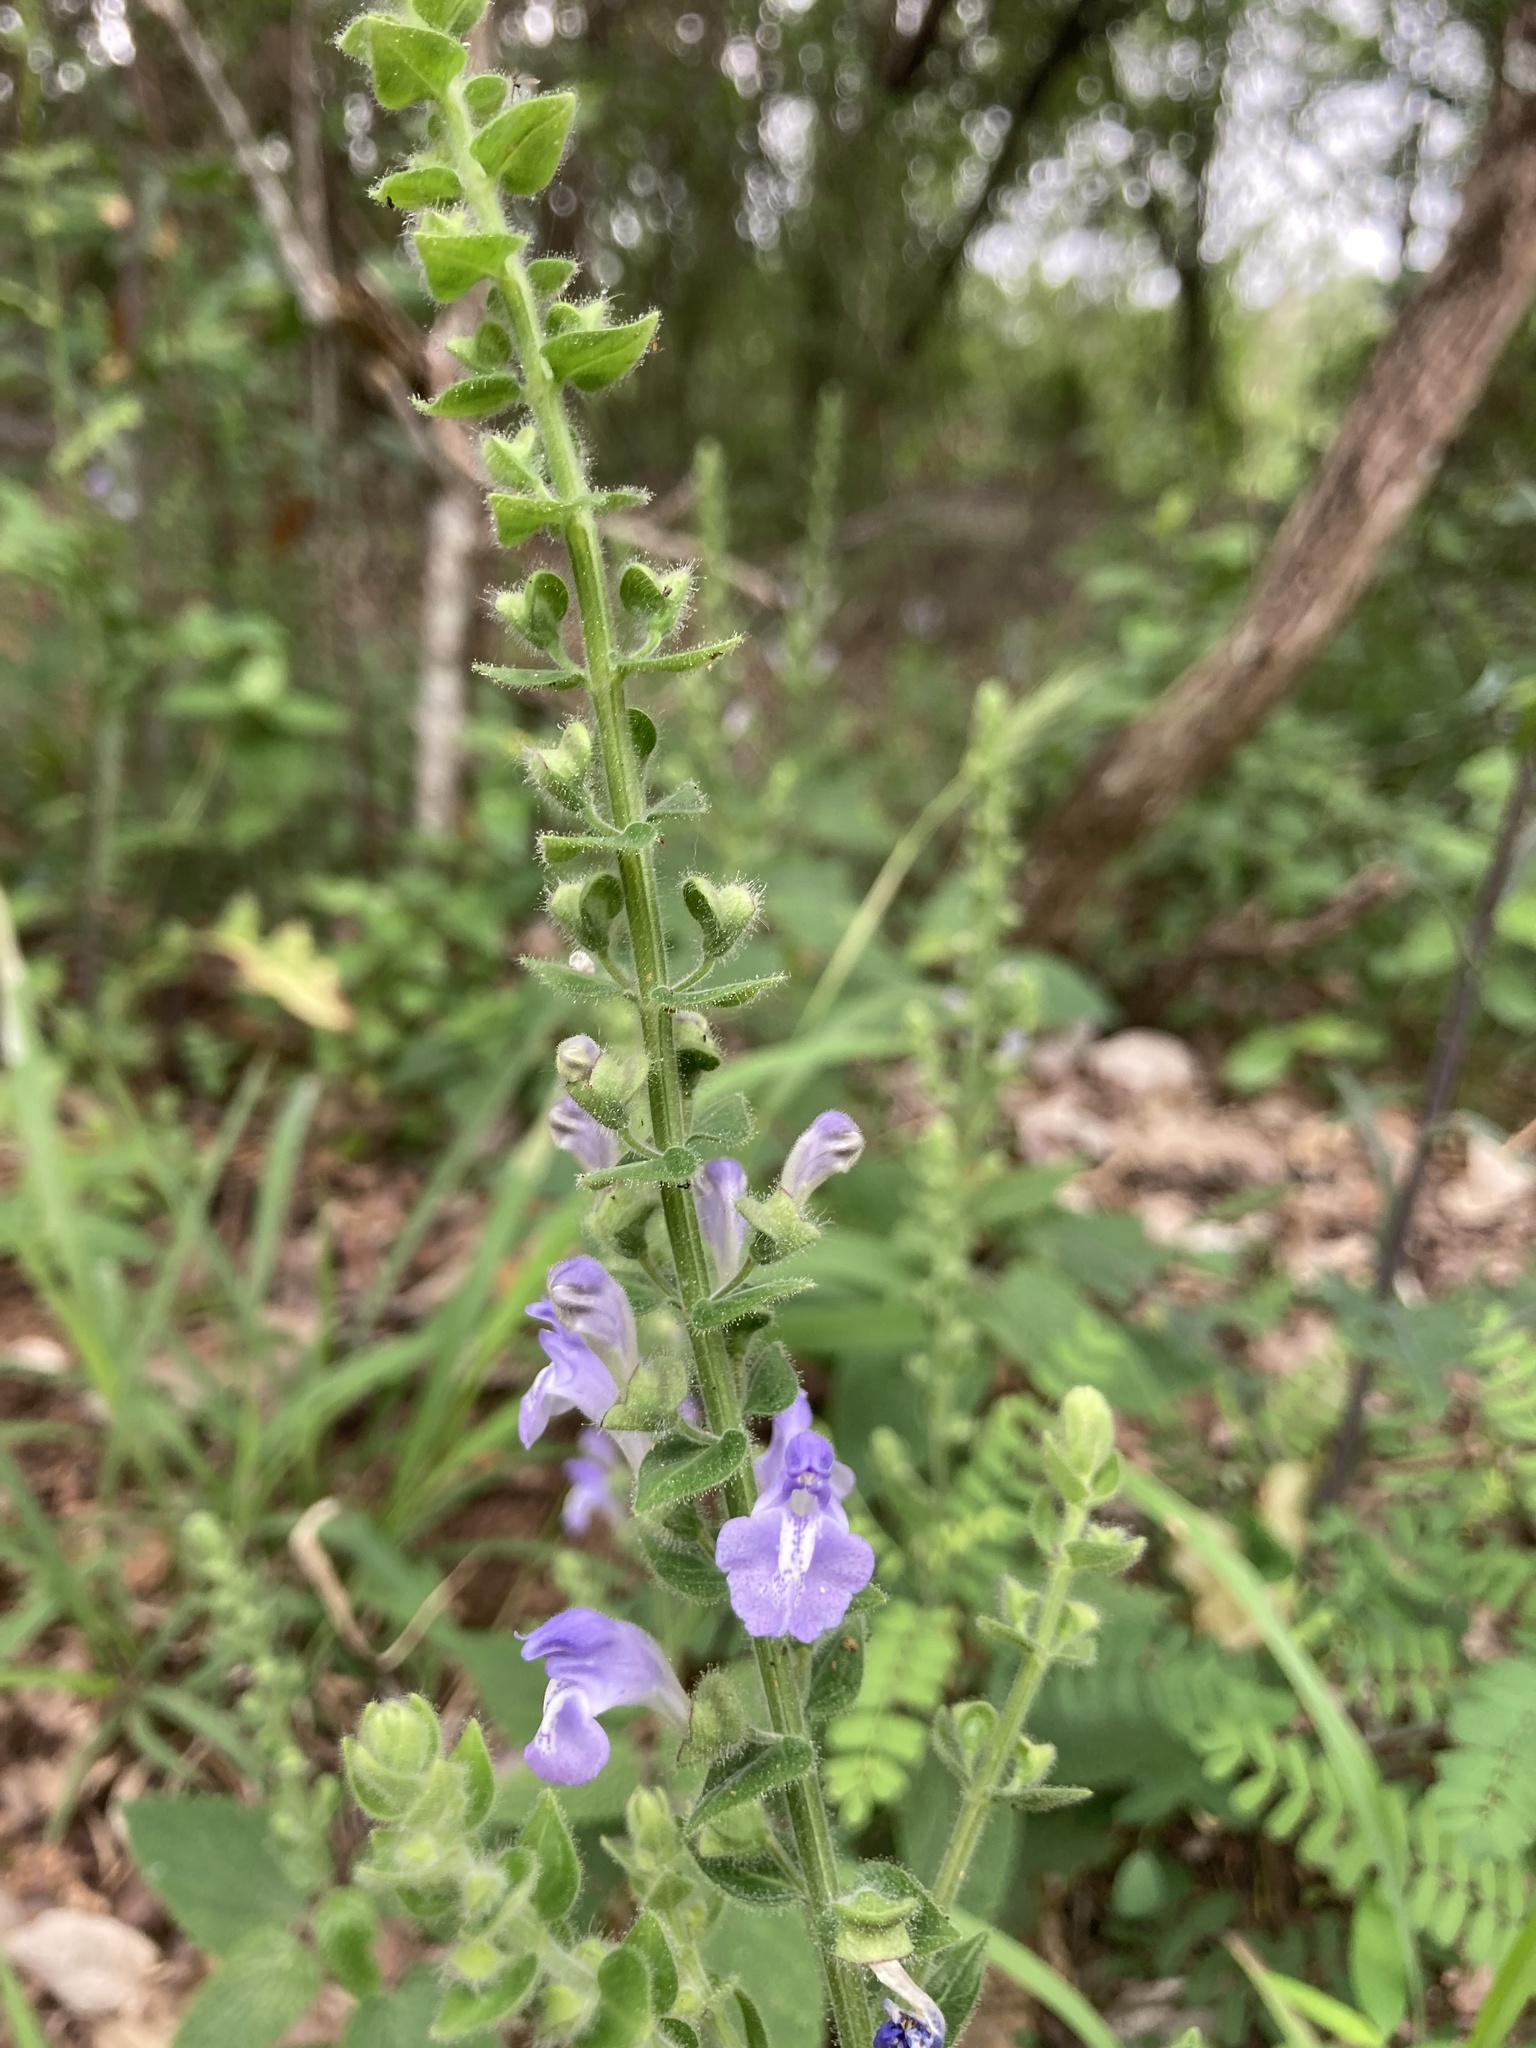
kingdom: Plantae
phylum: Tracheophyta
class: Magnoliopsida
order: Lamiales
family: Lamiaceae
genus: Scutellaria
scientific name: Scutellaria ovata
